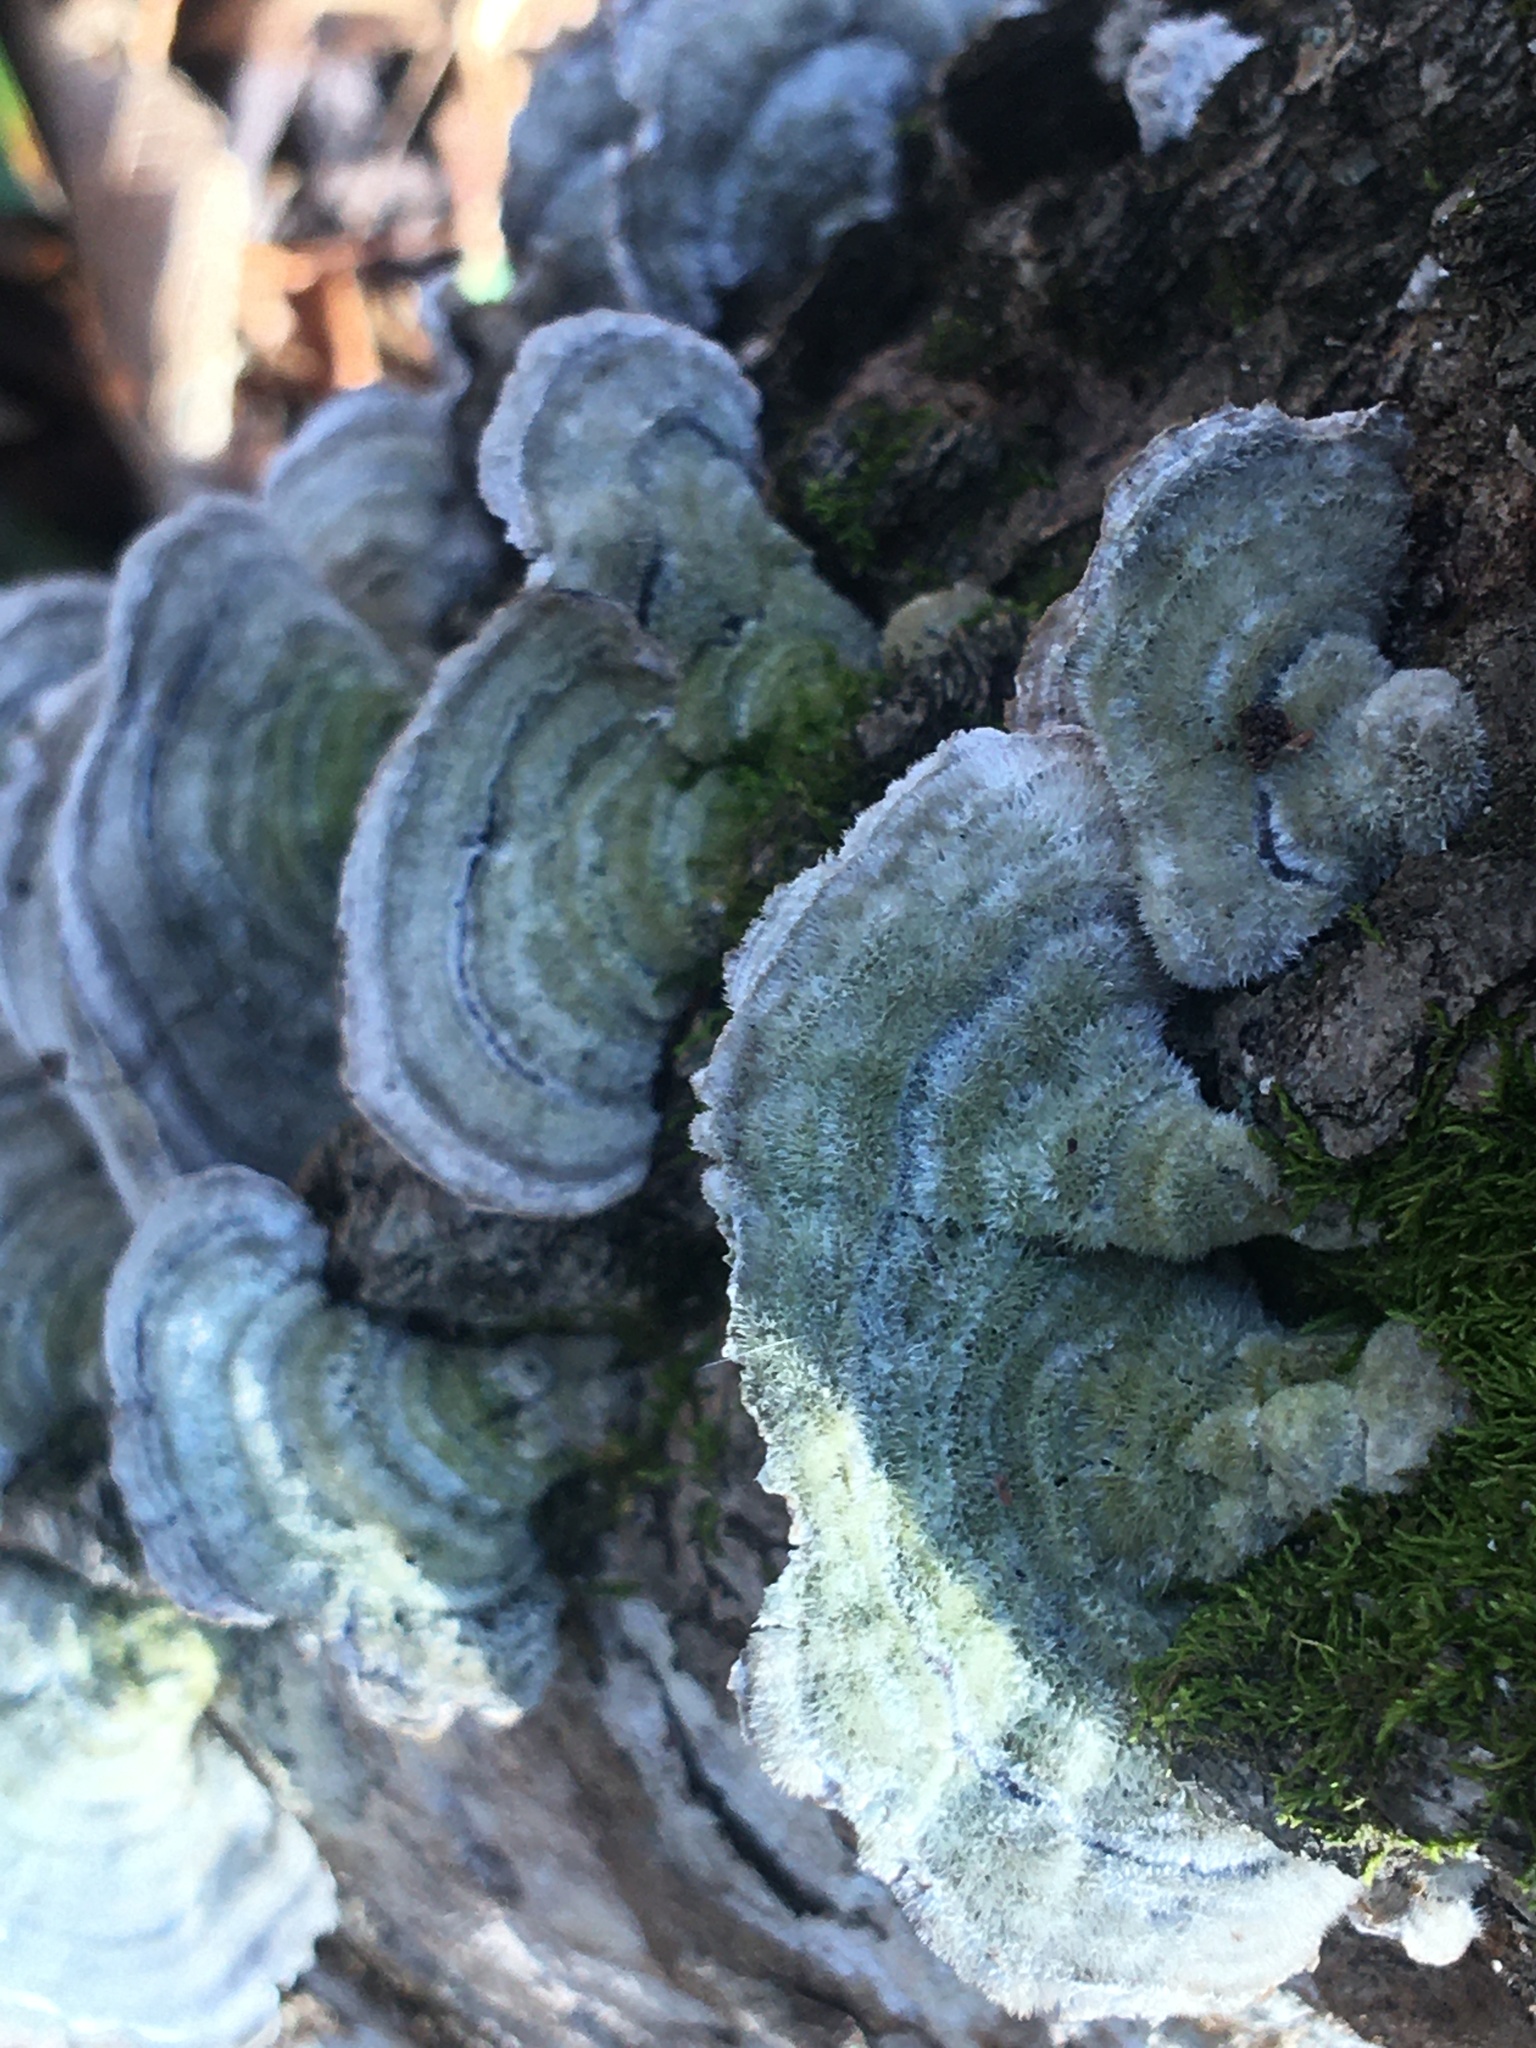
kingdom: Fungi
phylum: Basidiomycota
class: Agaricomycetes
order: Polyporales
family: Polyporaceae
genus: Trametes
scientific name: Trametes hirsuta
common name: Hairy bracket
